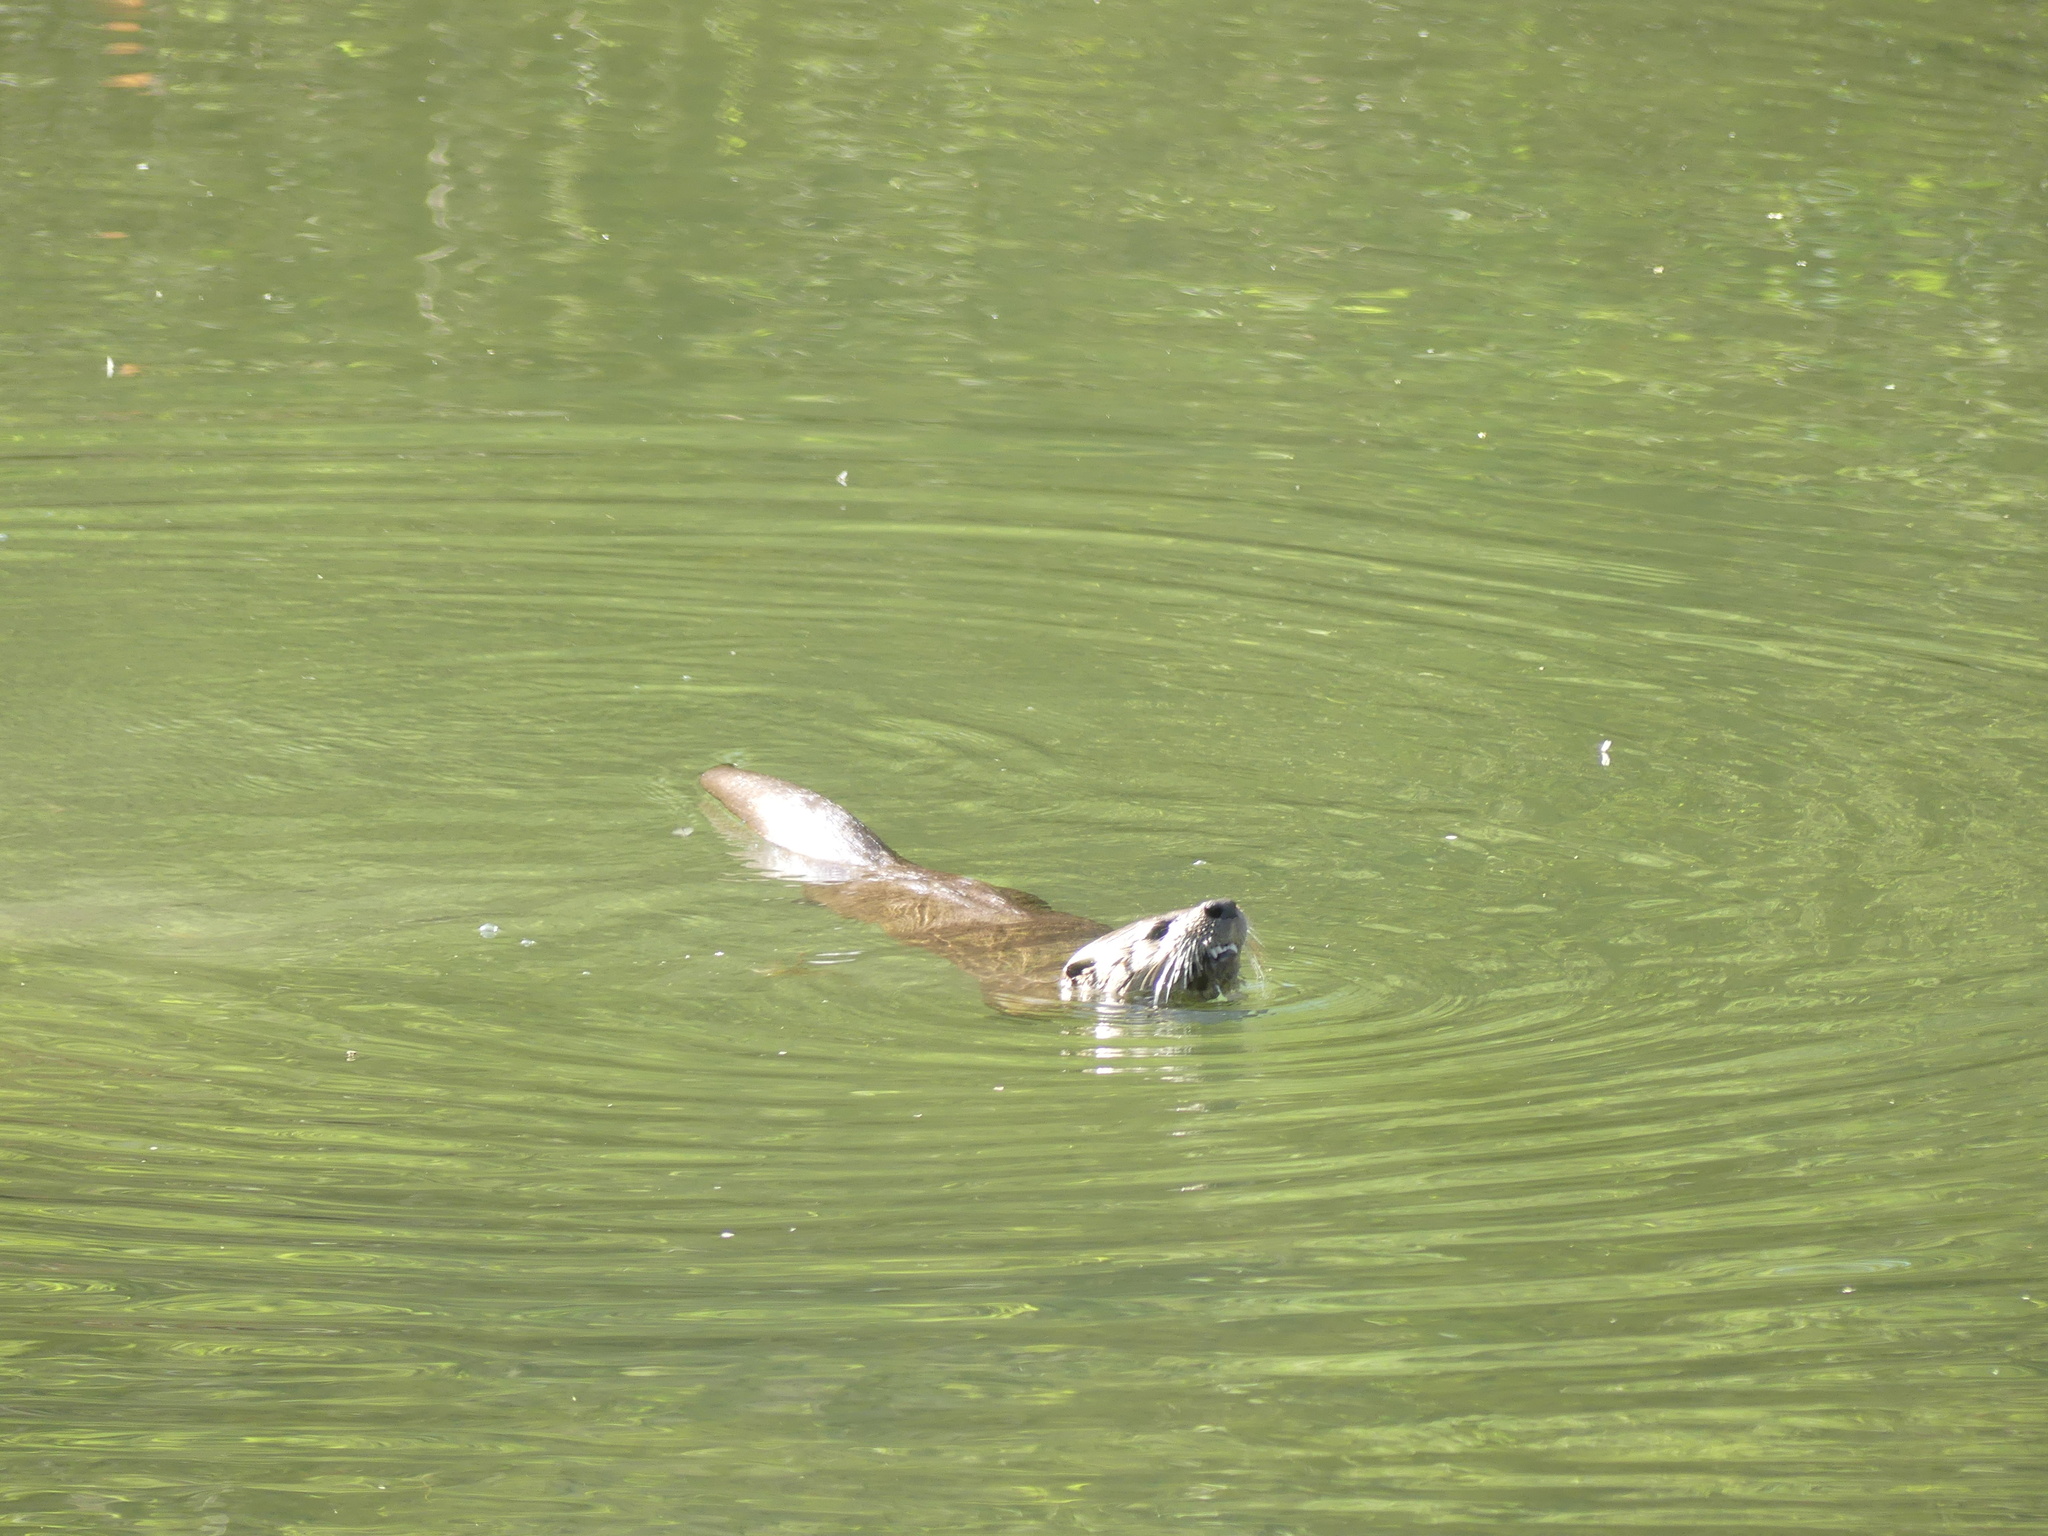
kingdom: Animalia
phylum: Chordata
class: Mammalia
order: Carnivora
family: Mustelidae
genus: Lontra
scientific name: Lontra canadensis
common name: North american river otter
